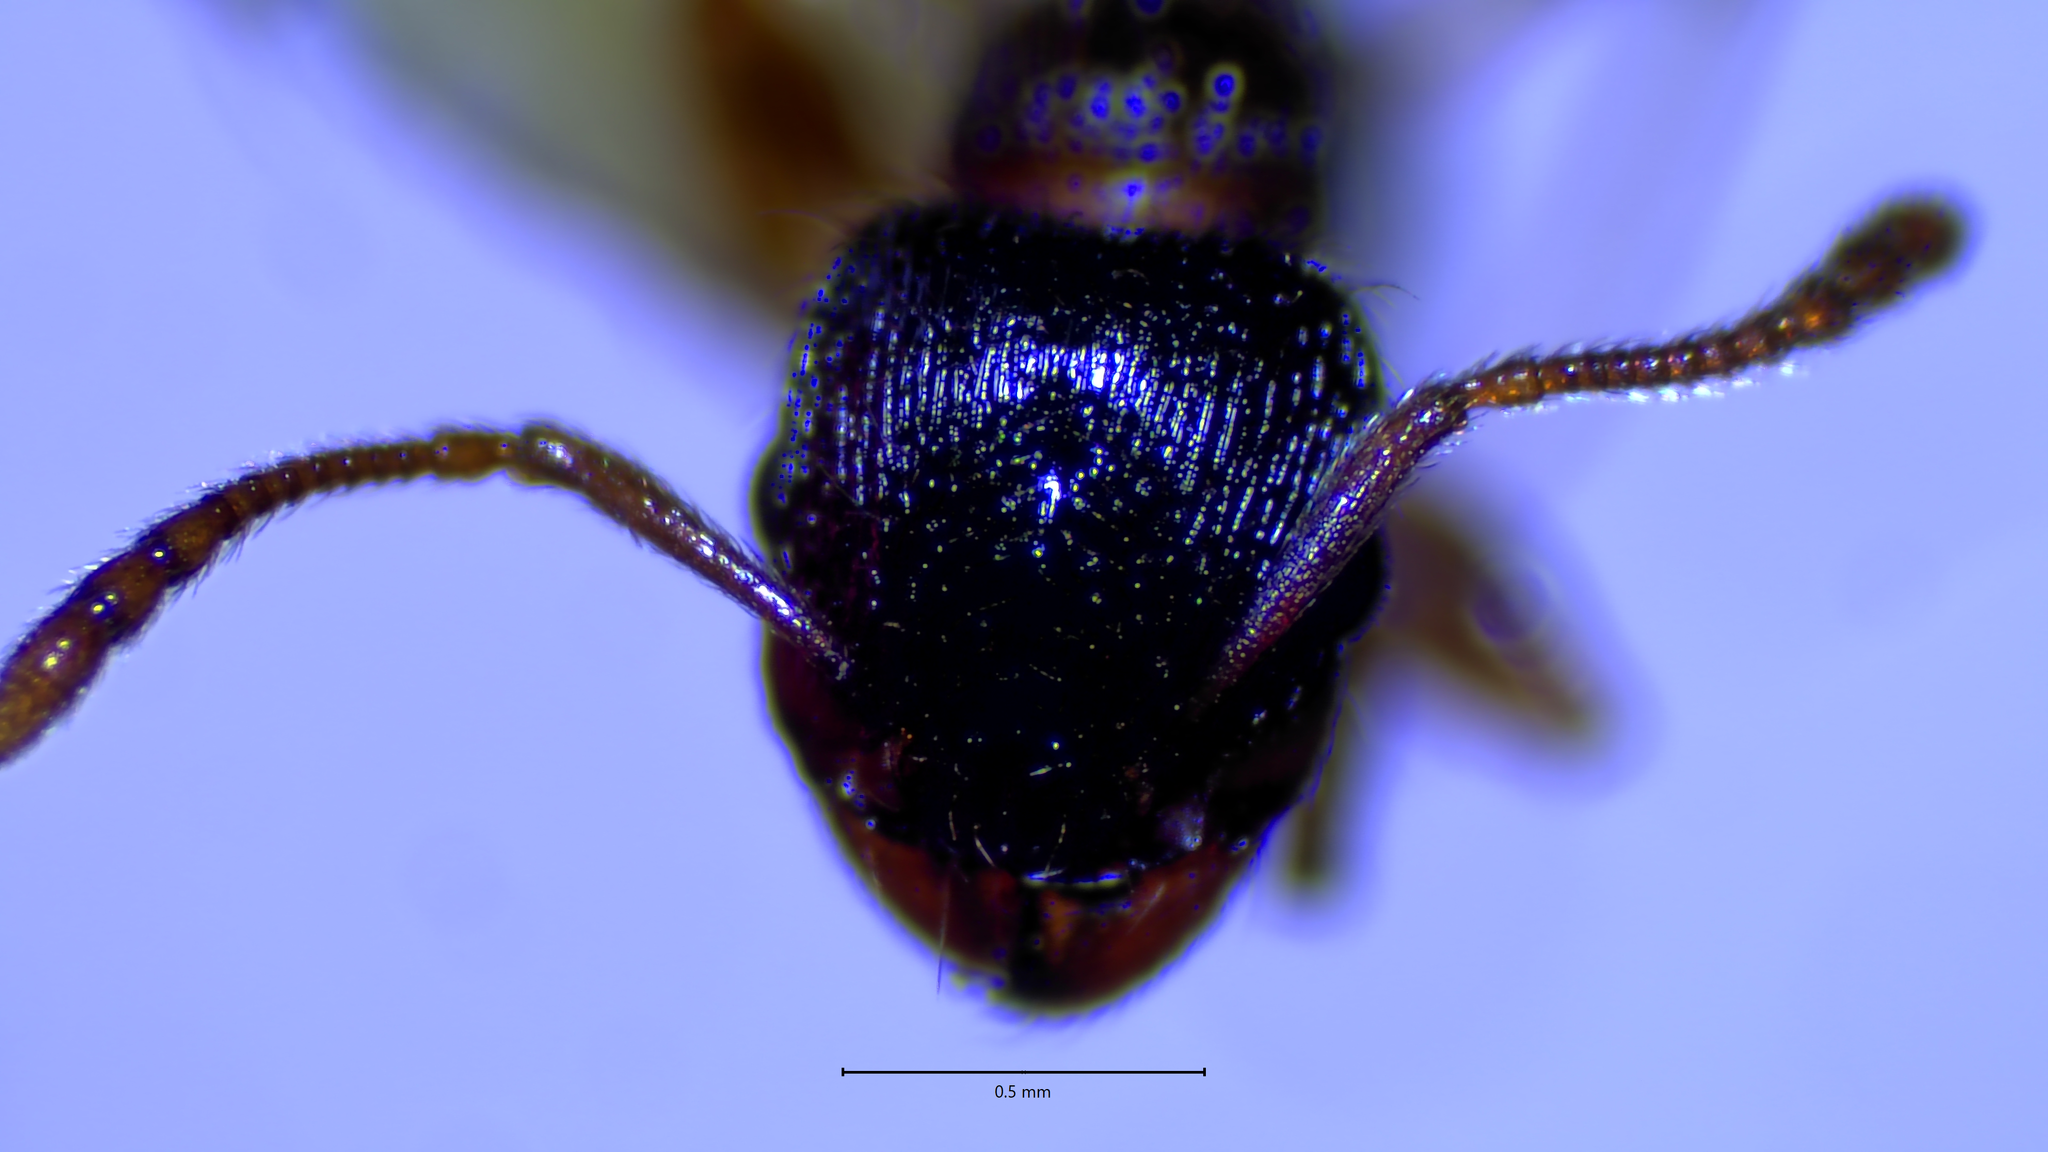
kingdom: Animalia
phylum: Arthropoda
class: Insecta
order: Hymenoptera
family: Formicidae
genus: Tetramorium
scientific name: Tetramorium immigrans
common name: Pavement ant
